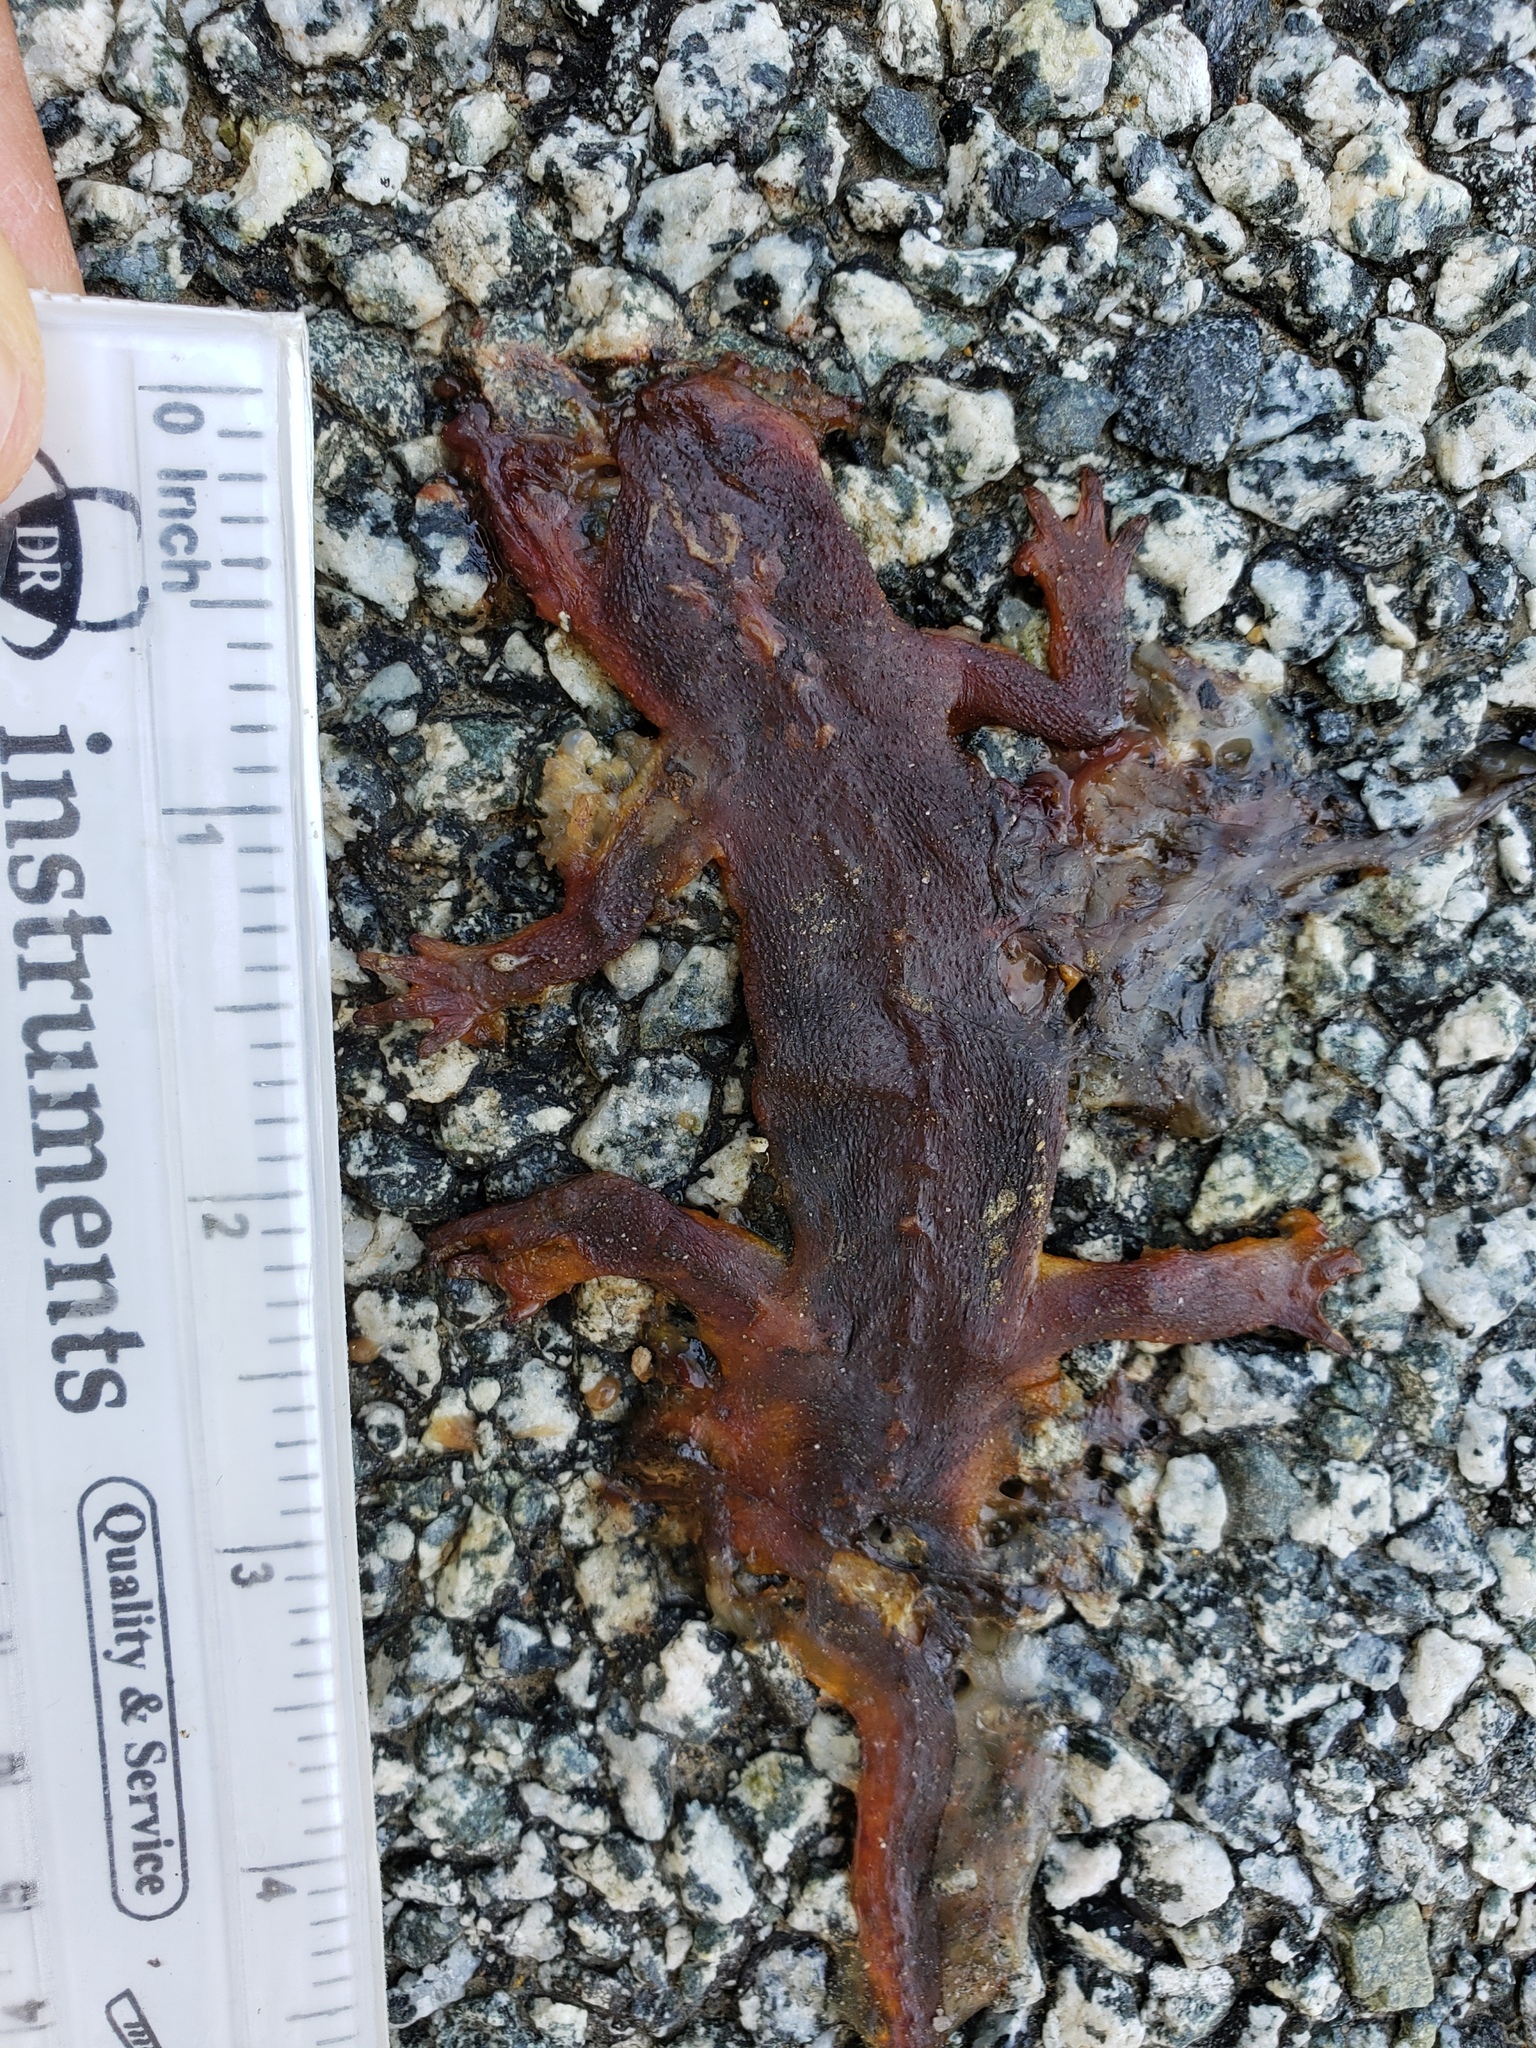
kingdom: Animalia
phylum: Chordata
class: Amphibia
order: Caudata
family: Salamandridae
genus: Taricha
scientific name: Taricha
